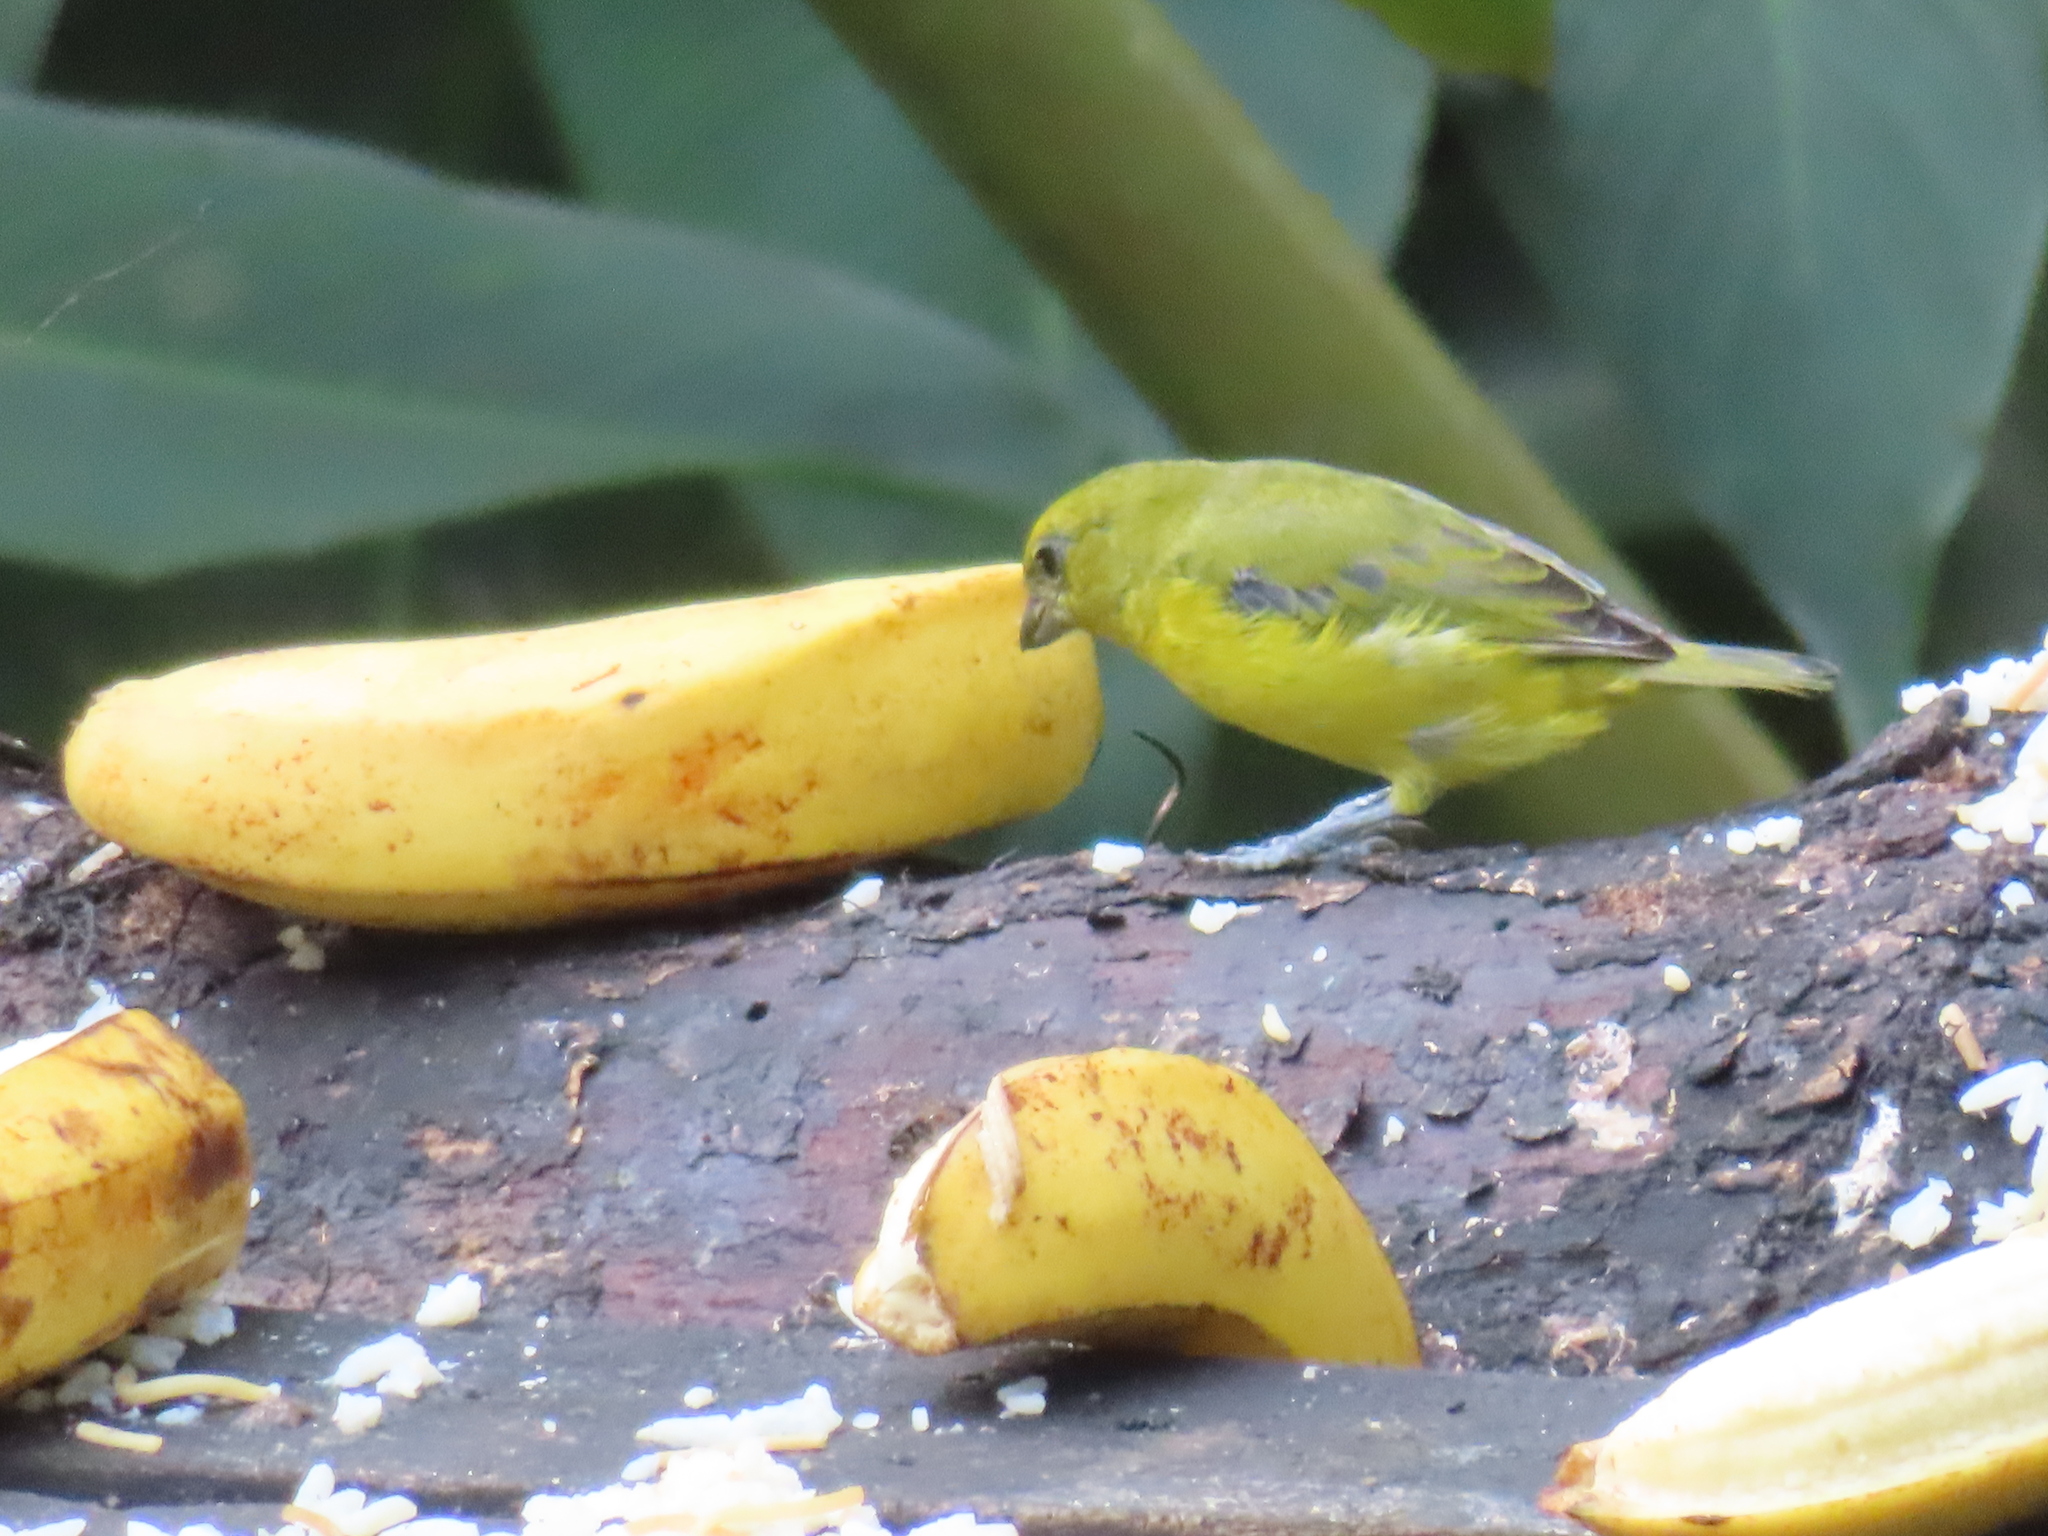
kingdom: Animalia
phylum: Chordata
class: Aves
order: Passeriformes
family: Fringillidae
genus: Euphonia
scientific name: Euphonia laniirostris
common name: Thick-billed euphonia
